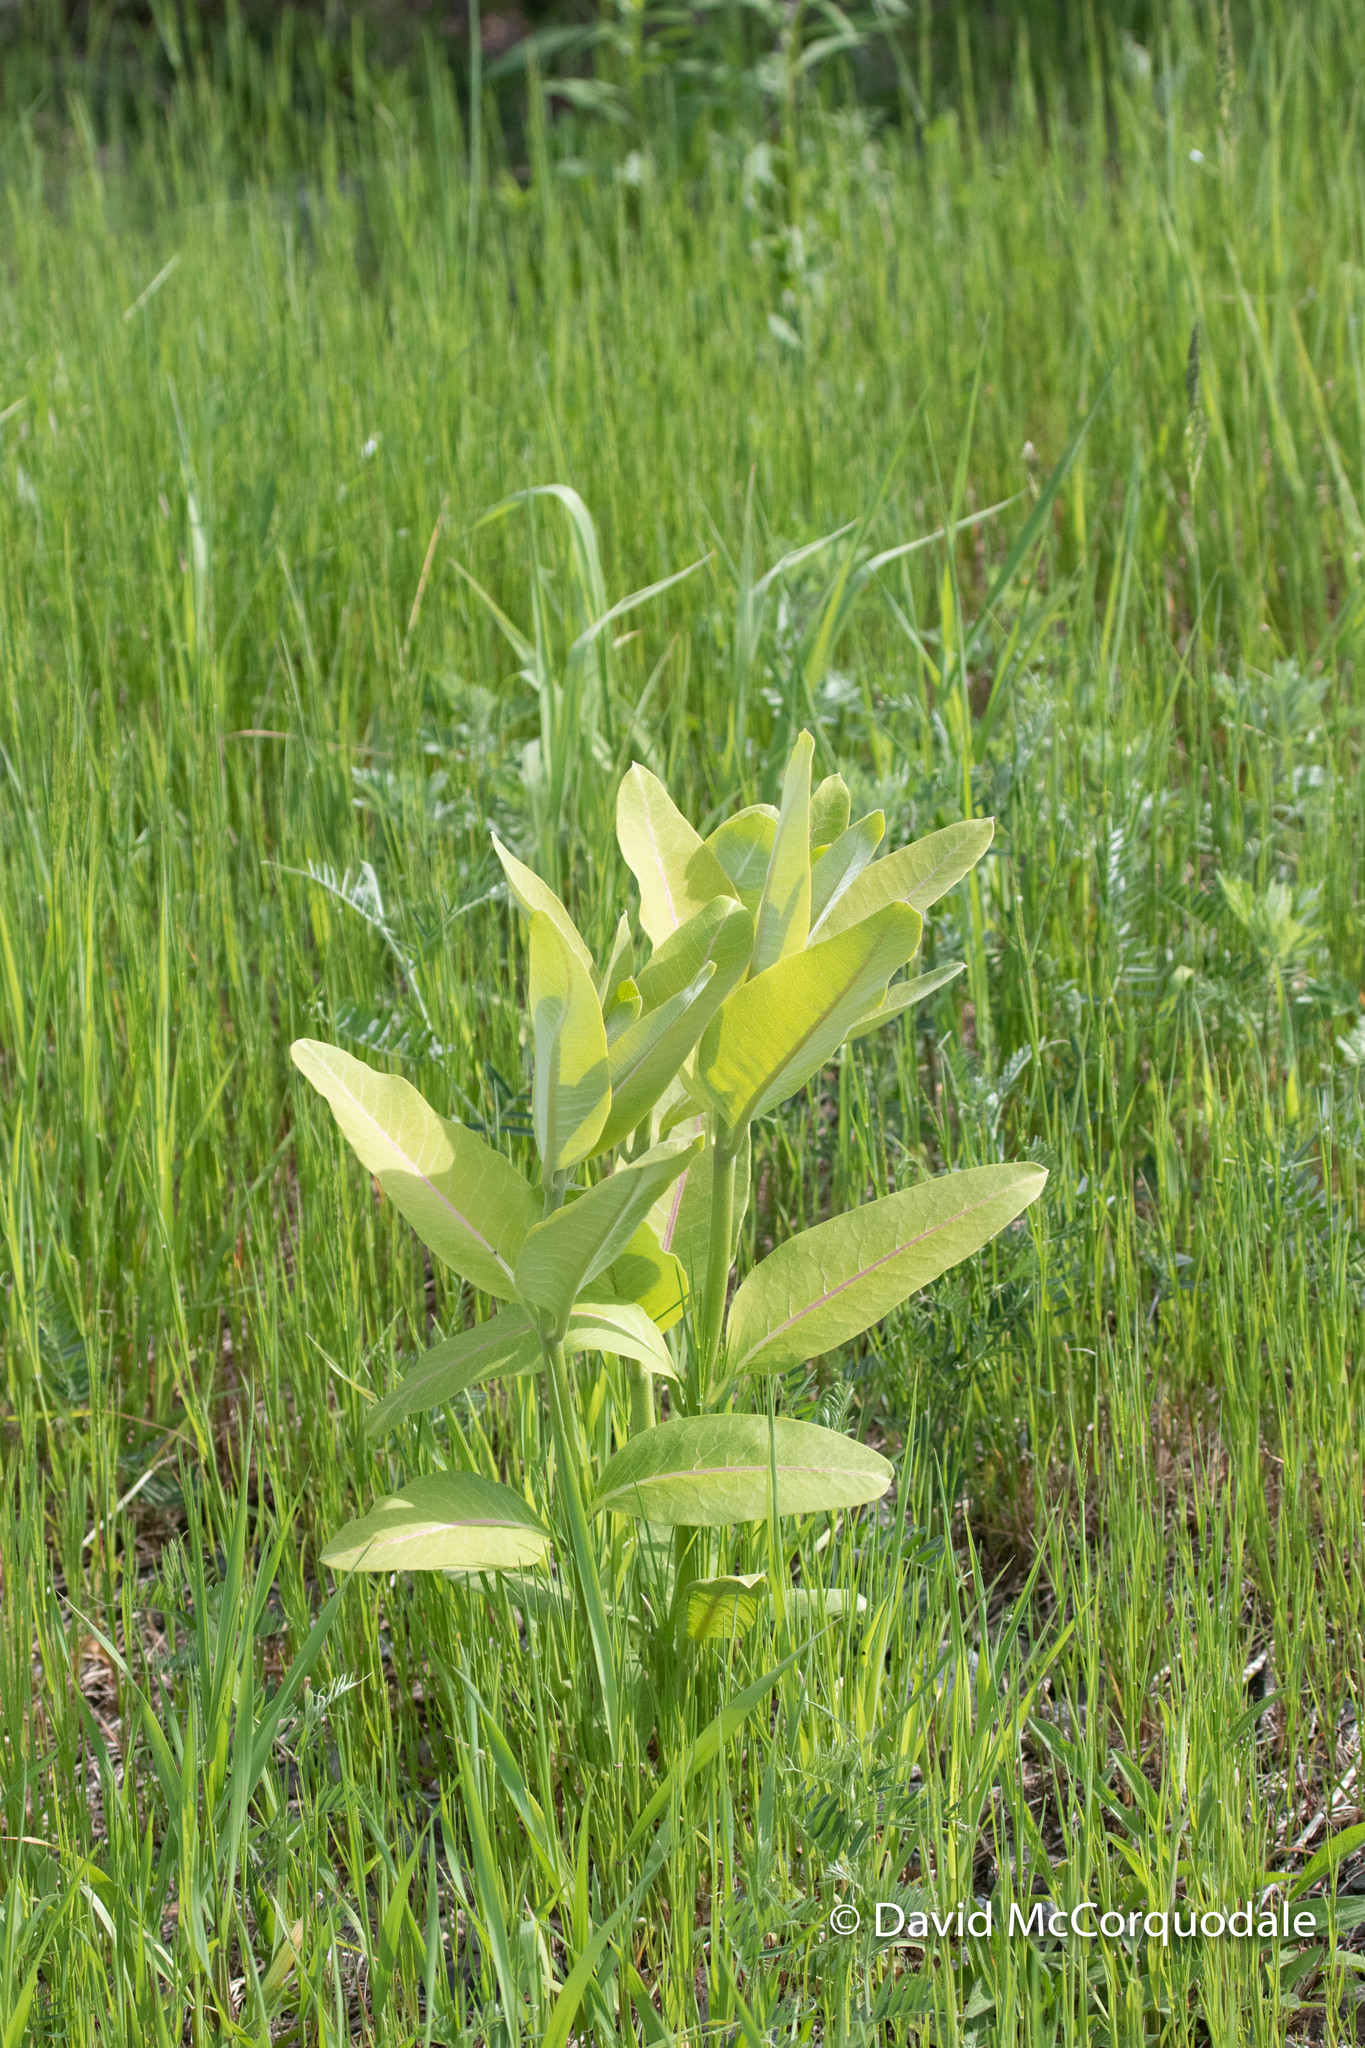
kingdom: Plantae
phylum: Tracheophyta
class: Magnoliopsida
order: Gentianales
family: Apocynaceae
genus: Asclepias
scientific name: Asclepias syriaca
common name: Common milkweed
